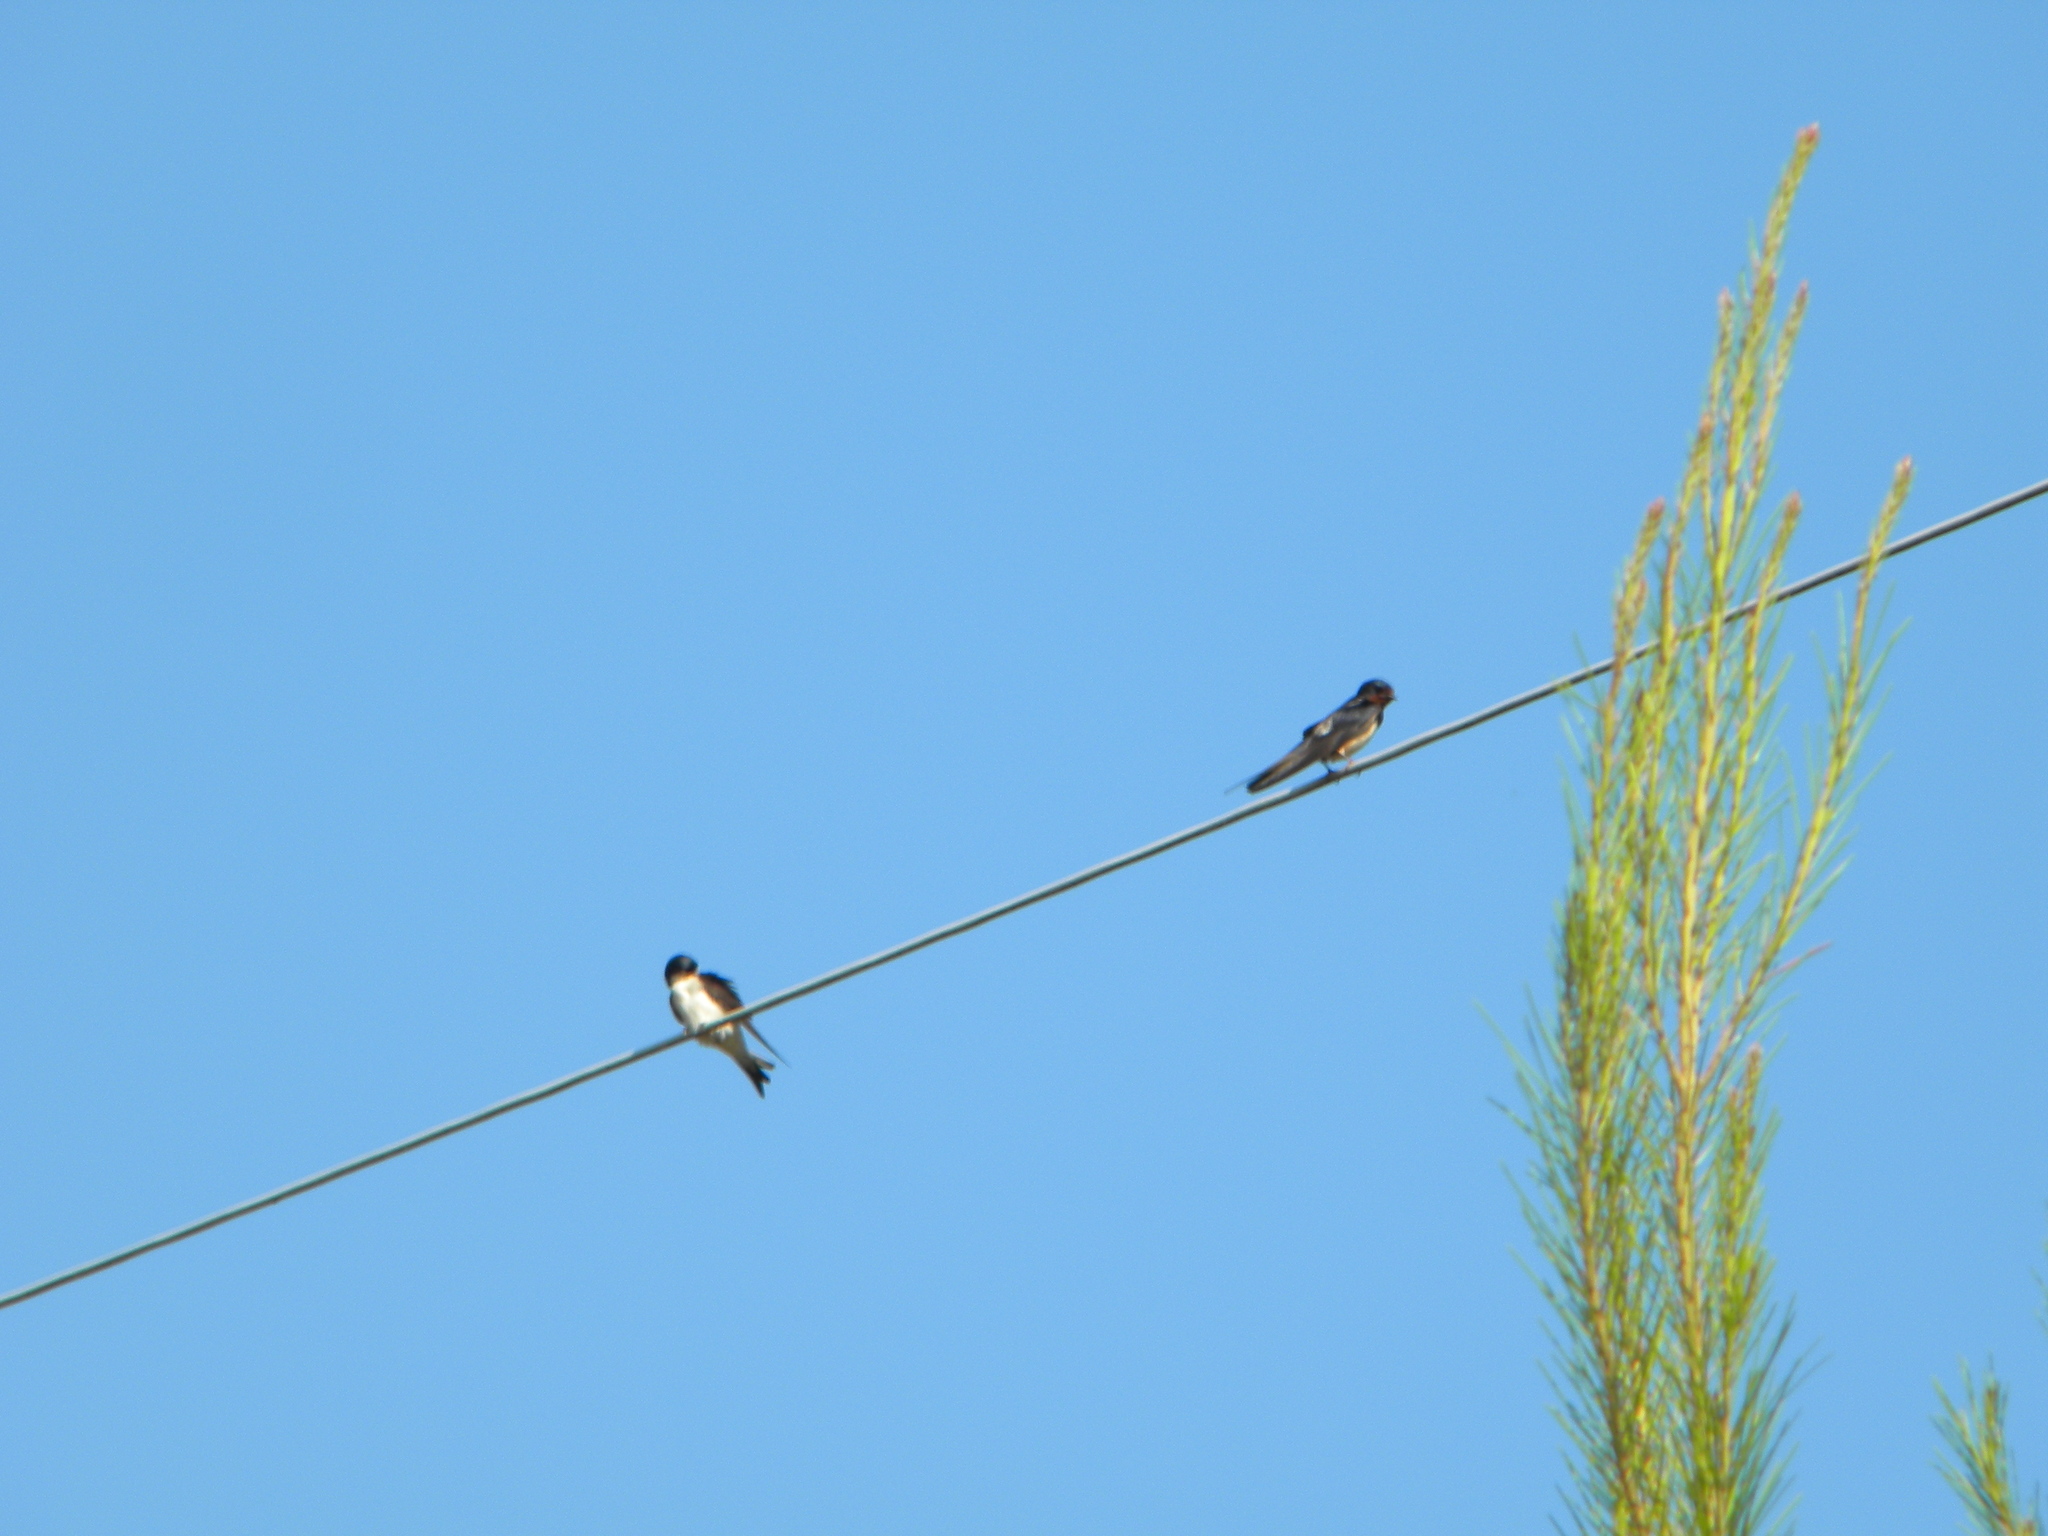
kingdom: Animalia
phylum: Chordata
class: Aves
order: Passeriformes
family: Hirundinidae
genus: Delichon
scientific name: Delichon urbicum
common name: Common house martin
